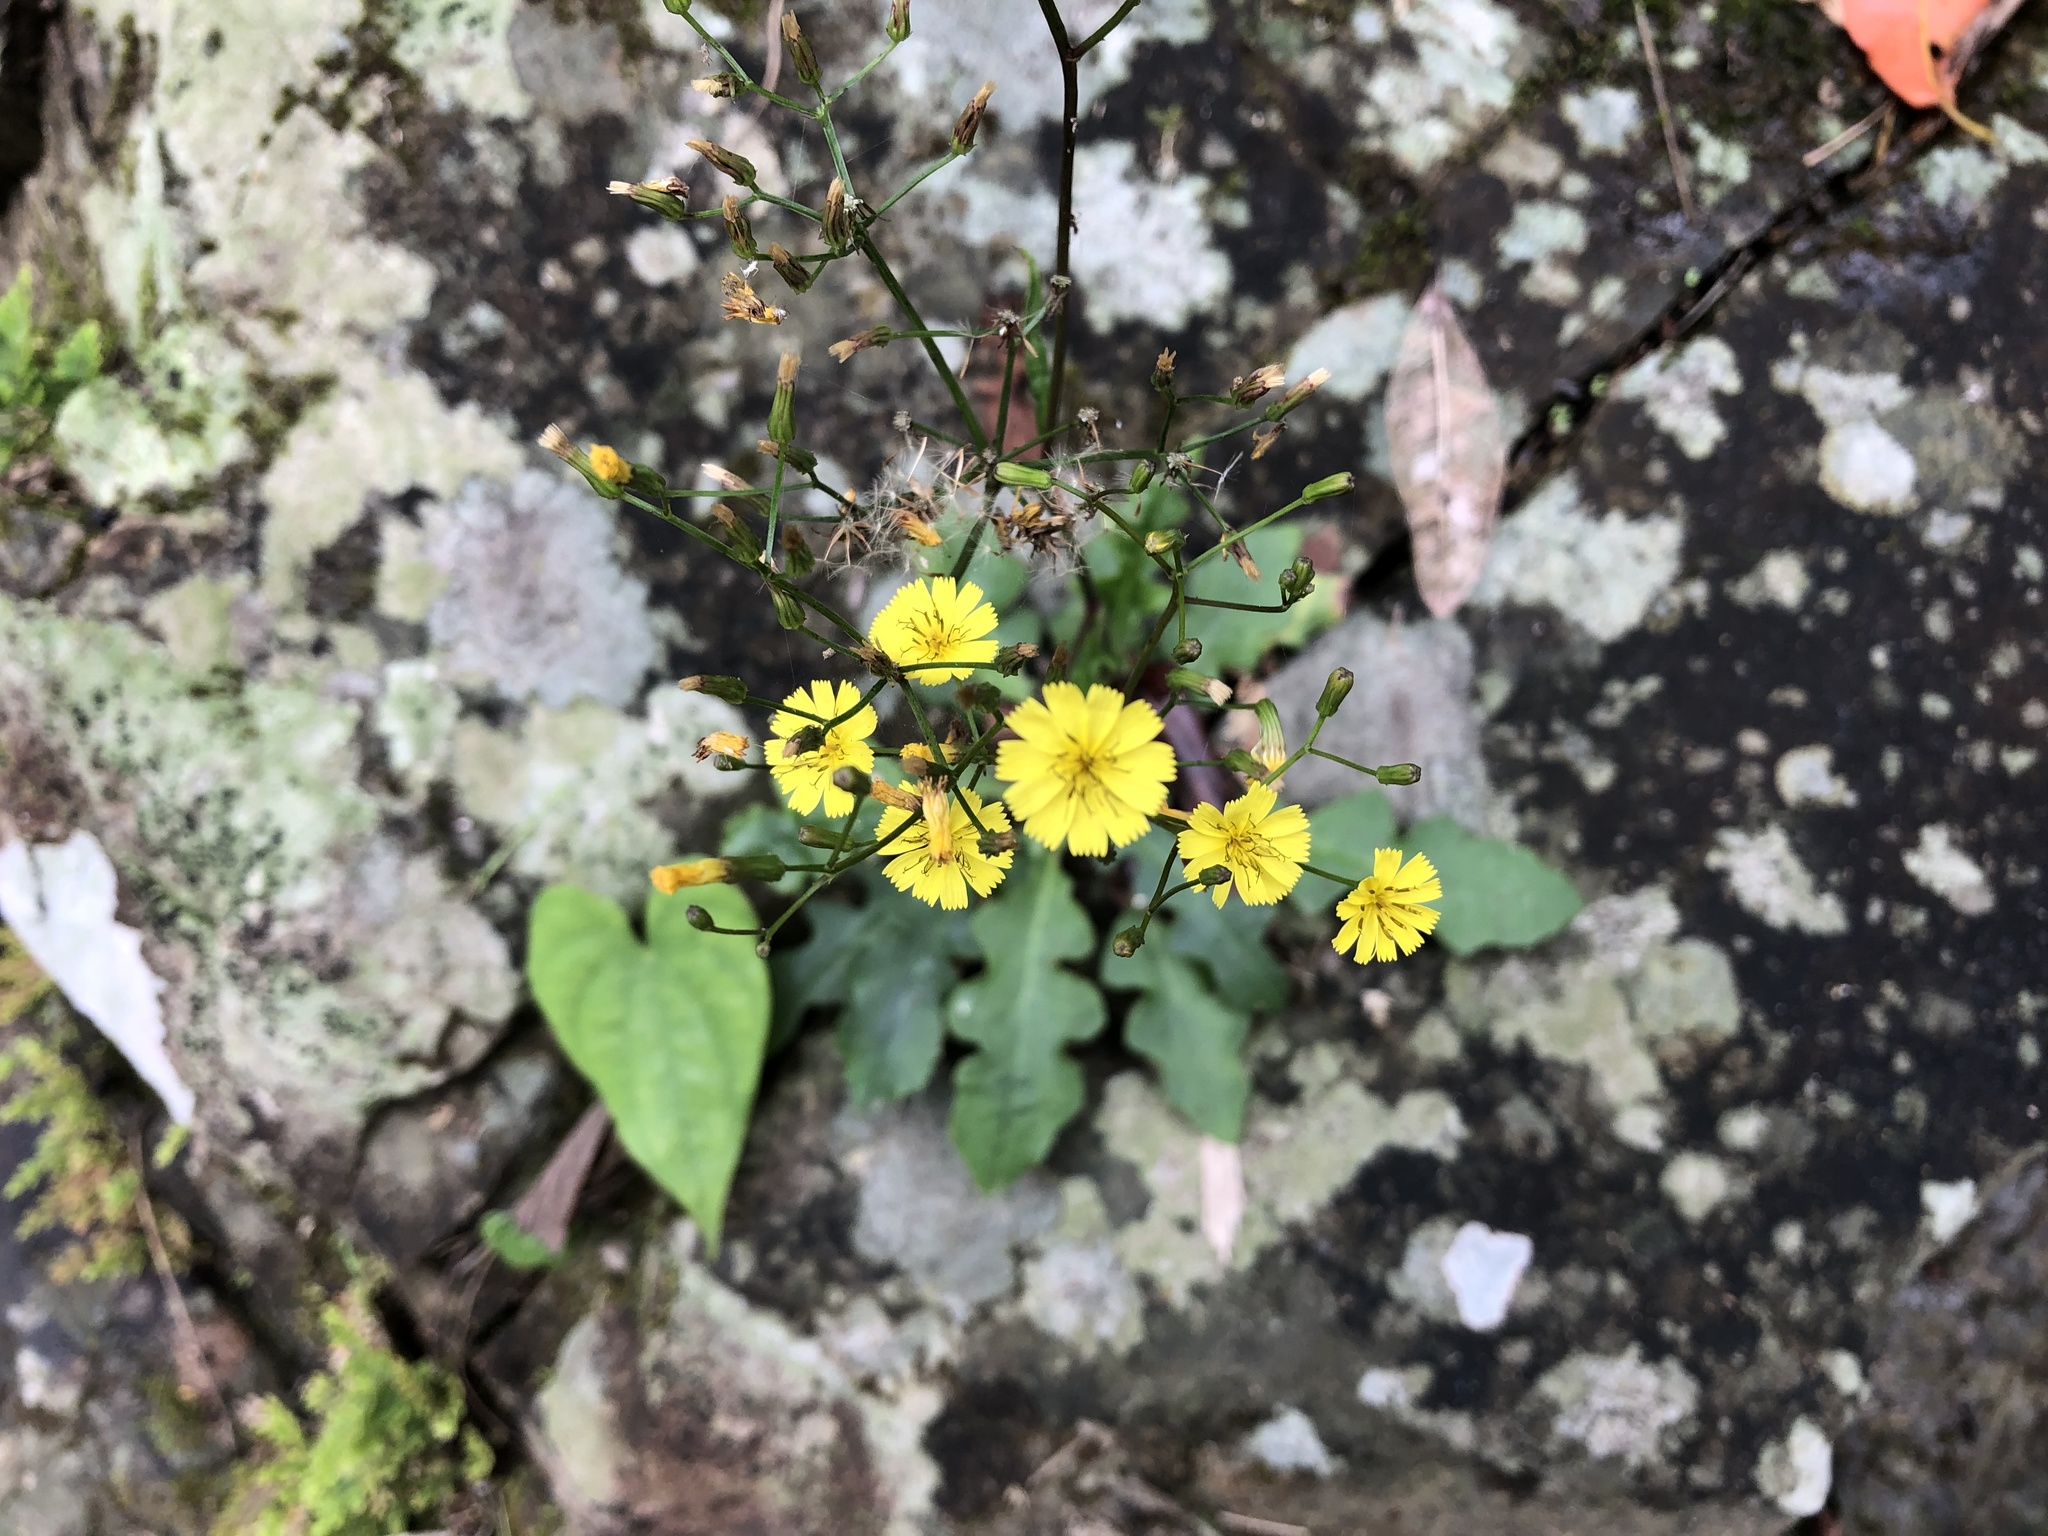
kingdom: Plantae
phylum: Tracheophyta
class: Magnoliopsida
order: Asterales
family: Asteraceae
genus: Ixeridium
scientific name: Ixeridium laevigatum
